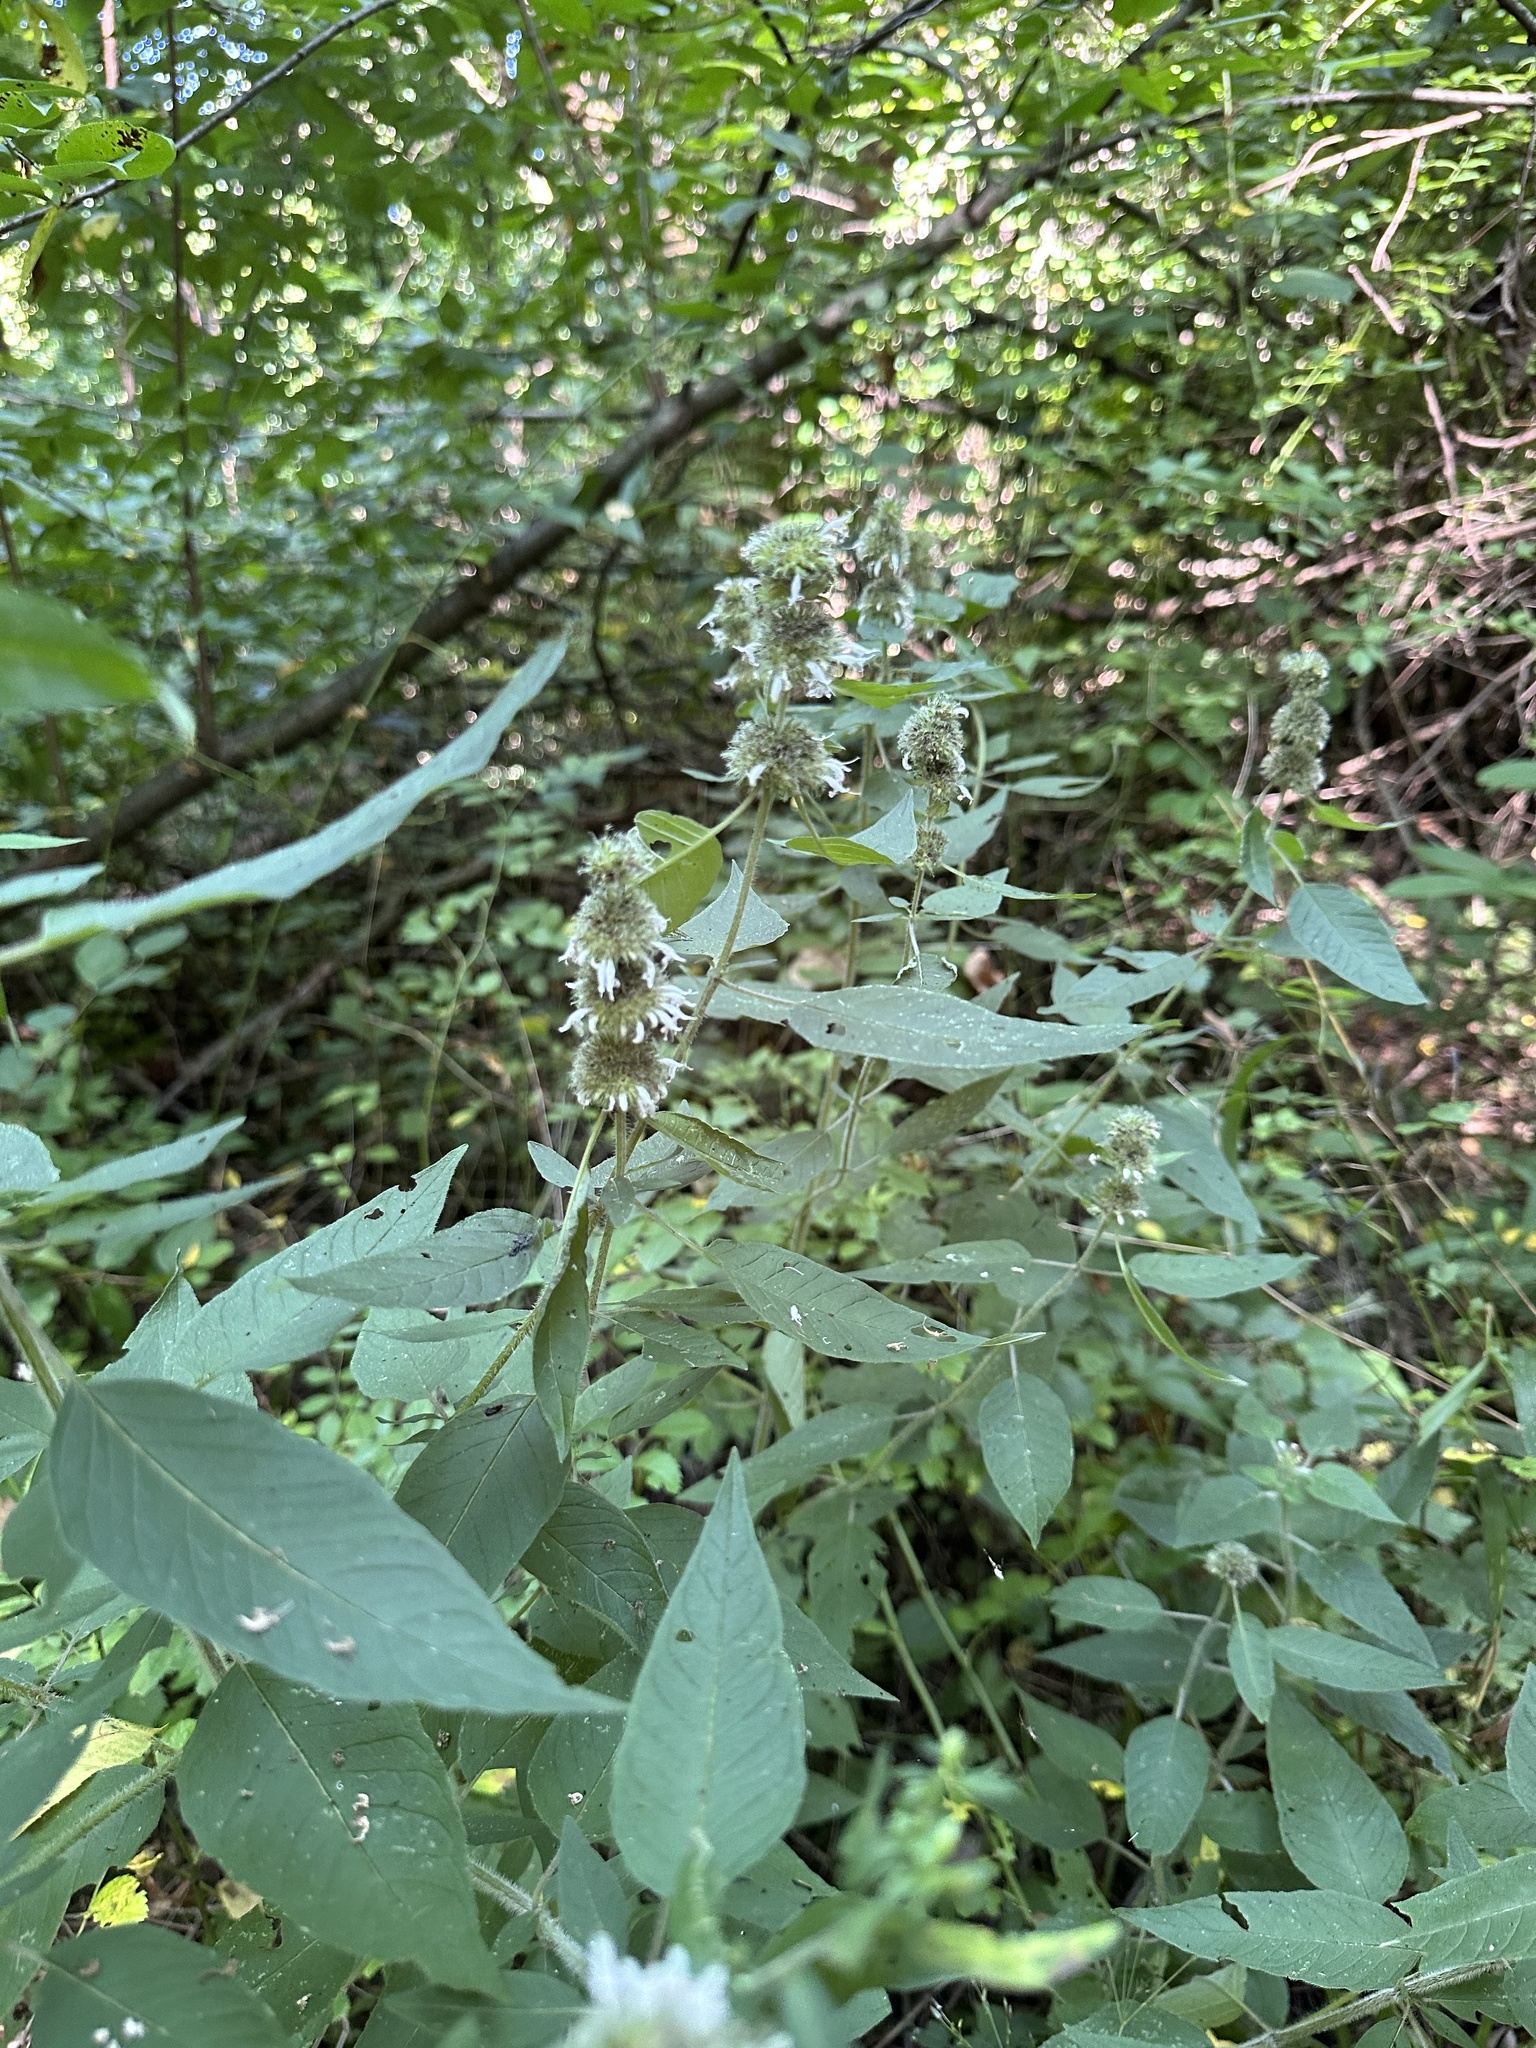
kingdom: Plantae
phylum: Tracheophyta
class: Magnoliopsida
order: Lamiales
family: Lamiaceae
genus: Blephilia
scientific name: Blephilia hirsuta
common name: Hairy blephilia
